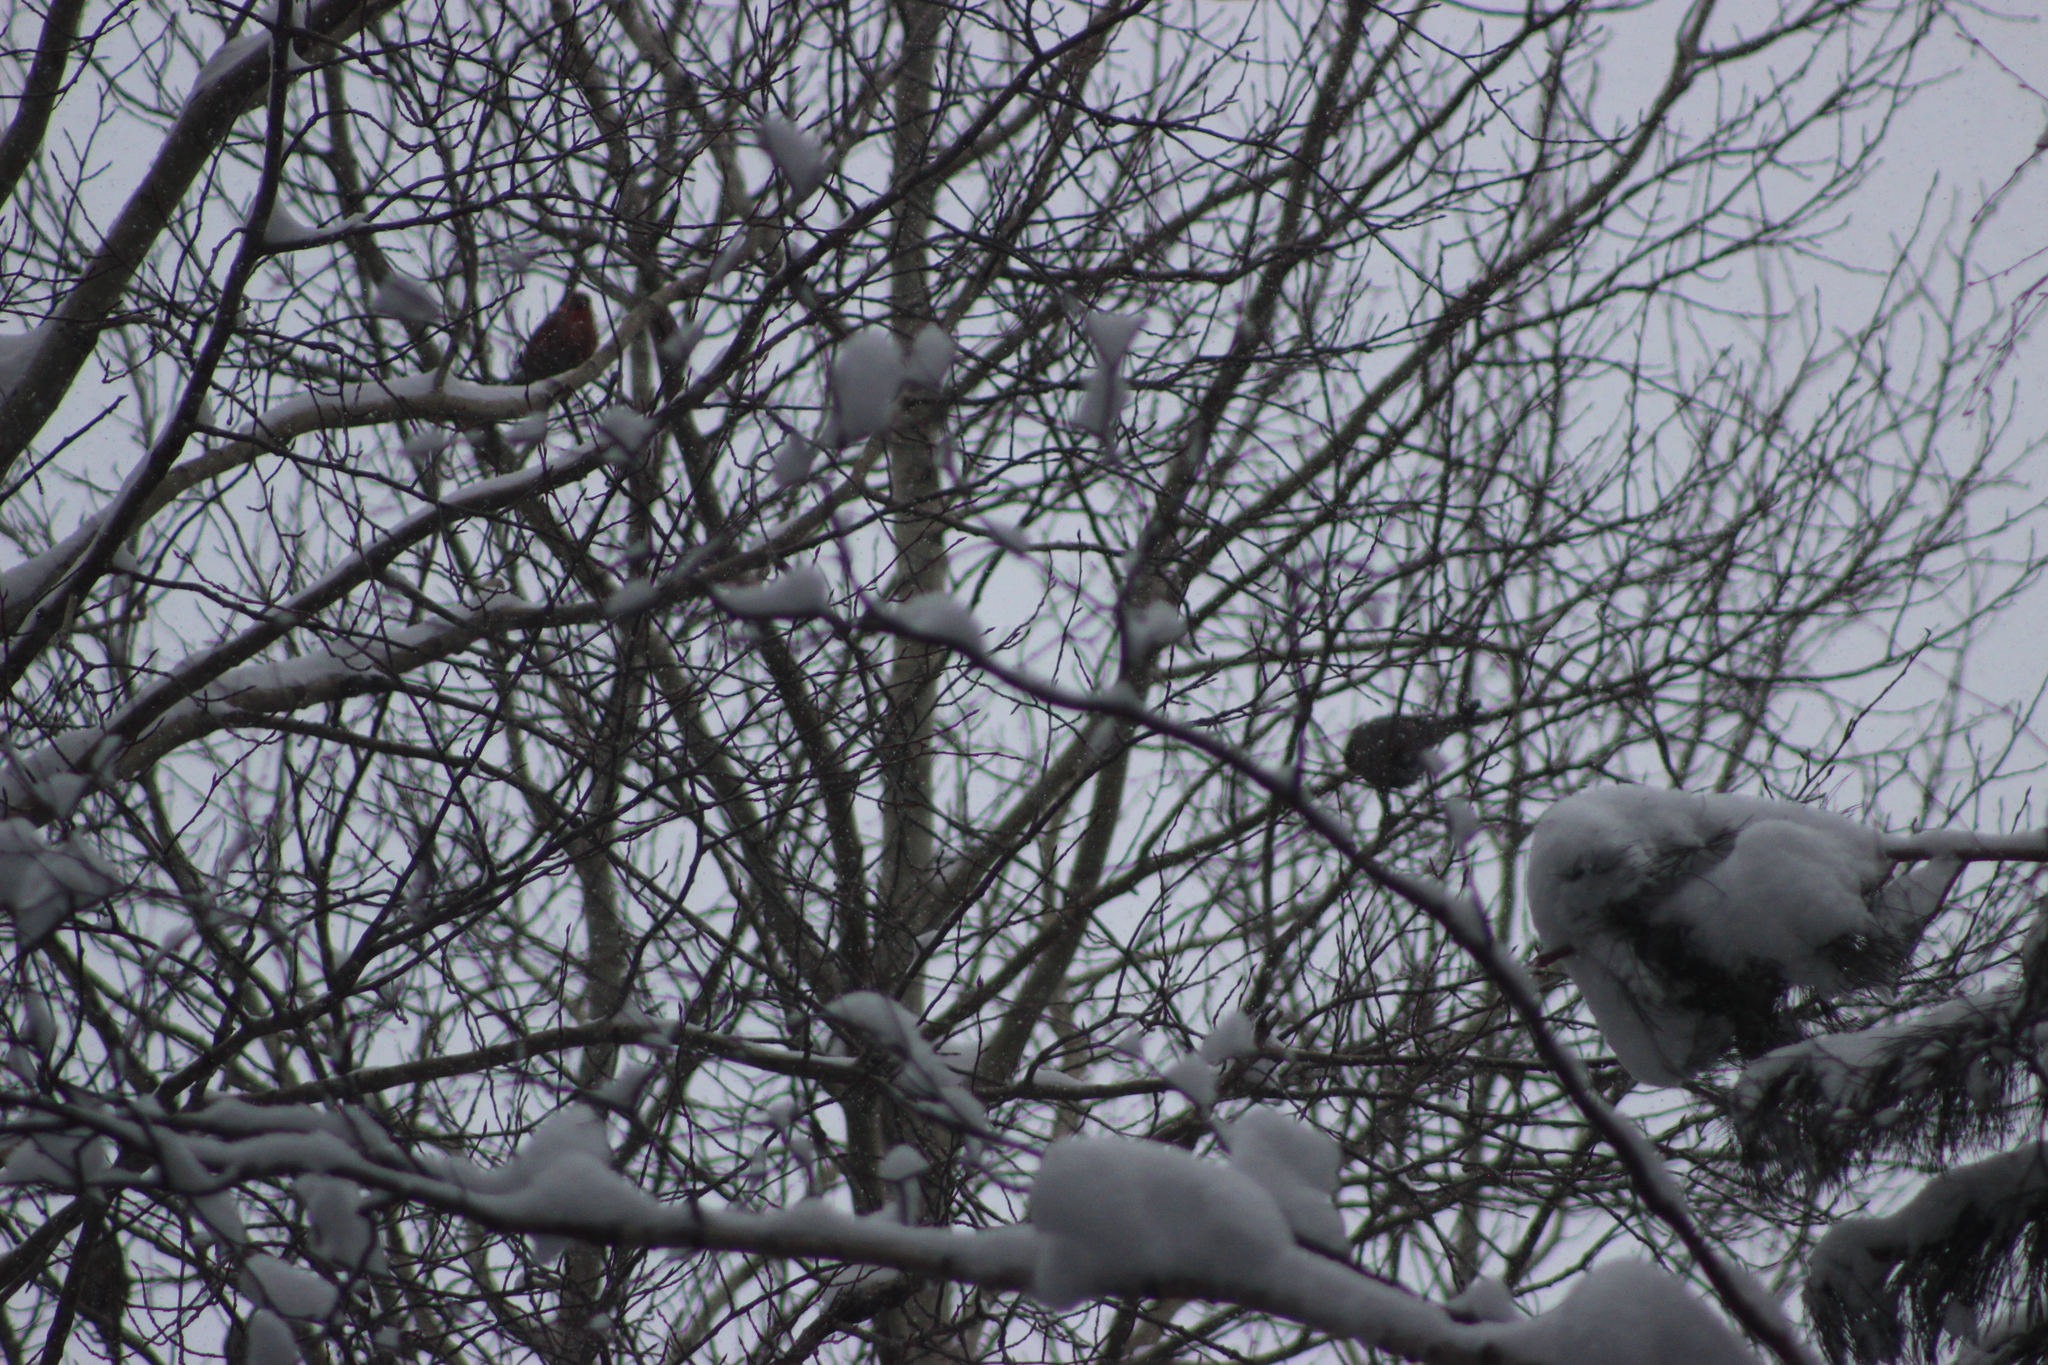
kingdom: Animalia
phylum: Chordata
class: Aves
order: Passeriformes
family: Fringillidae
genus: Coccothraustes
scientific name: Coccothraustes coccothraustes
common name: Hawfinch
